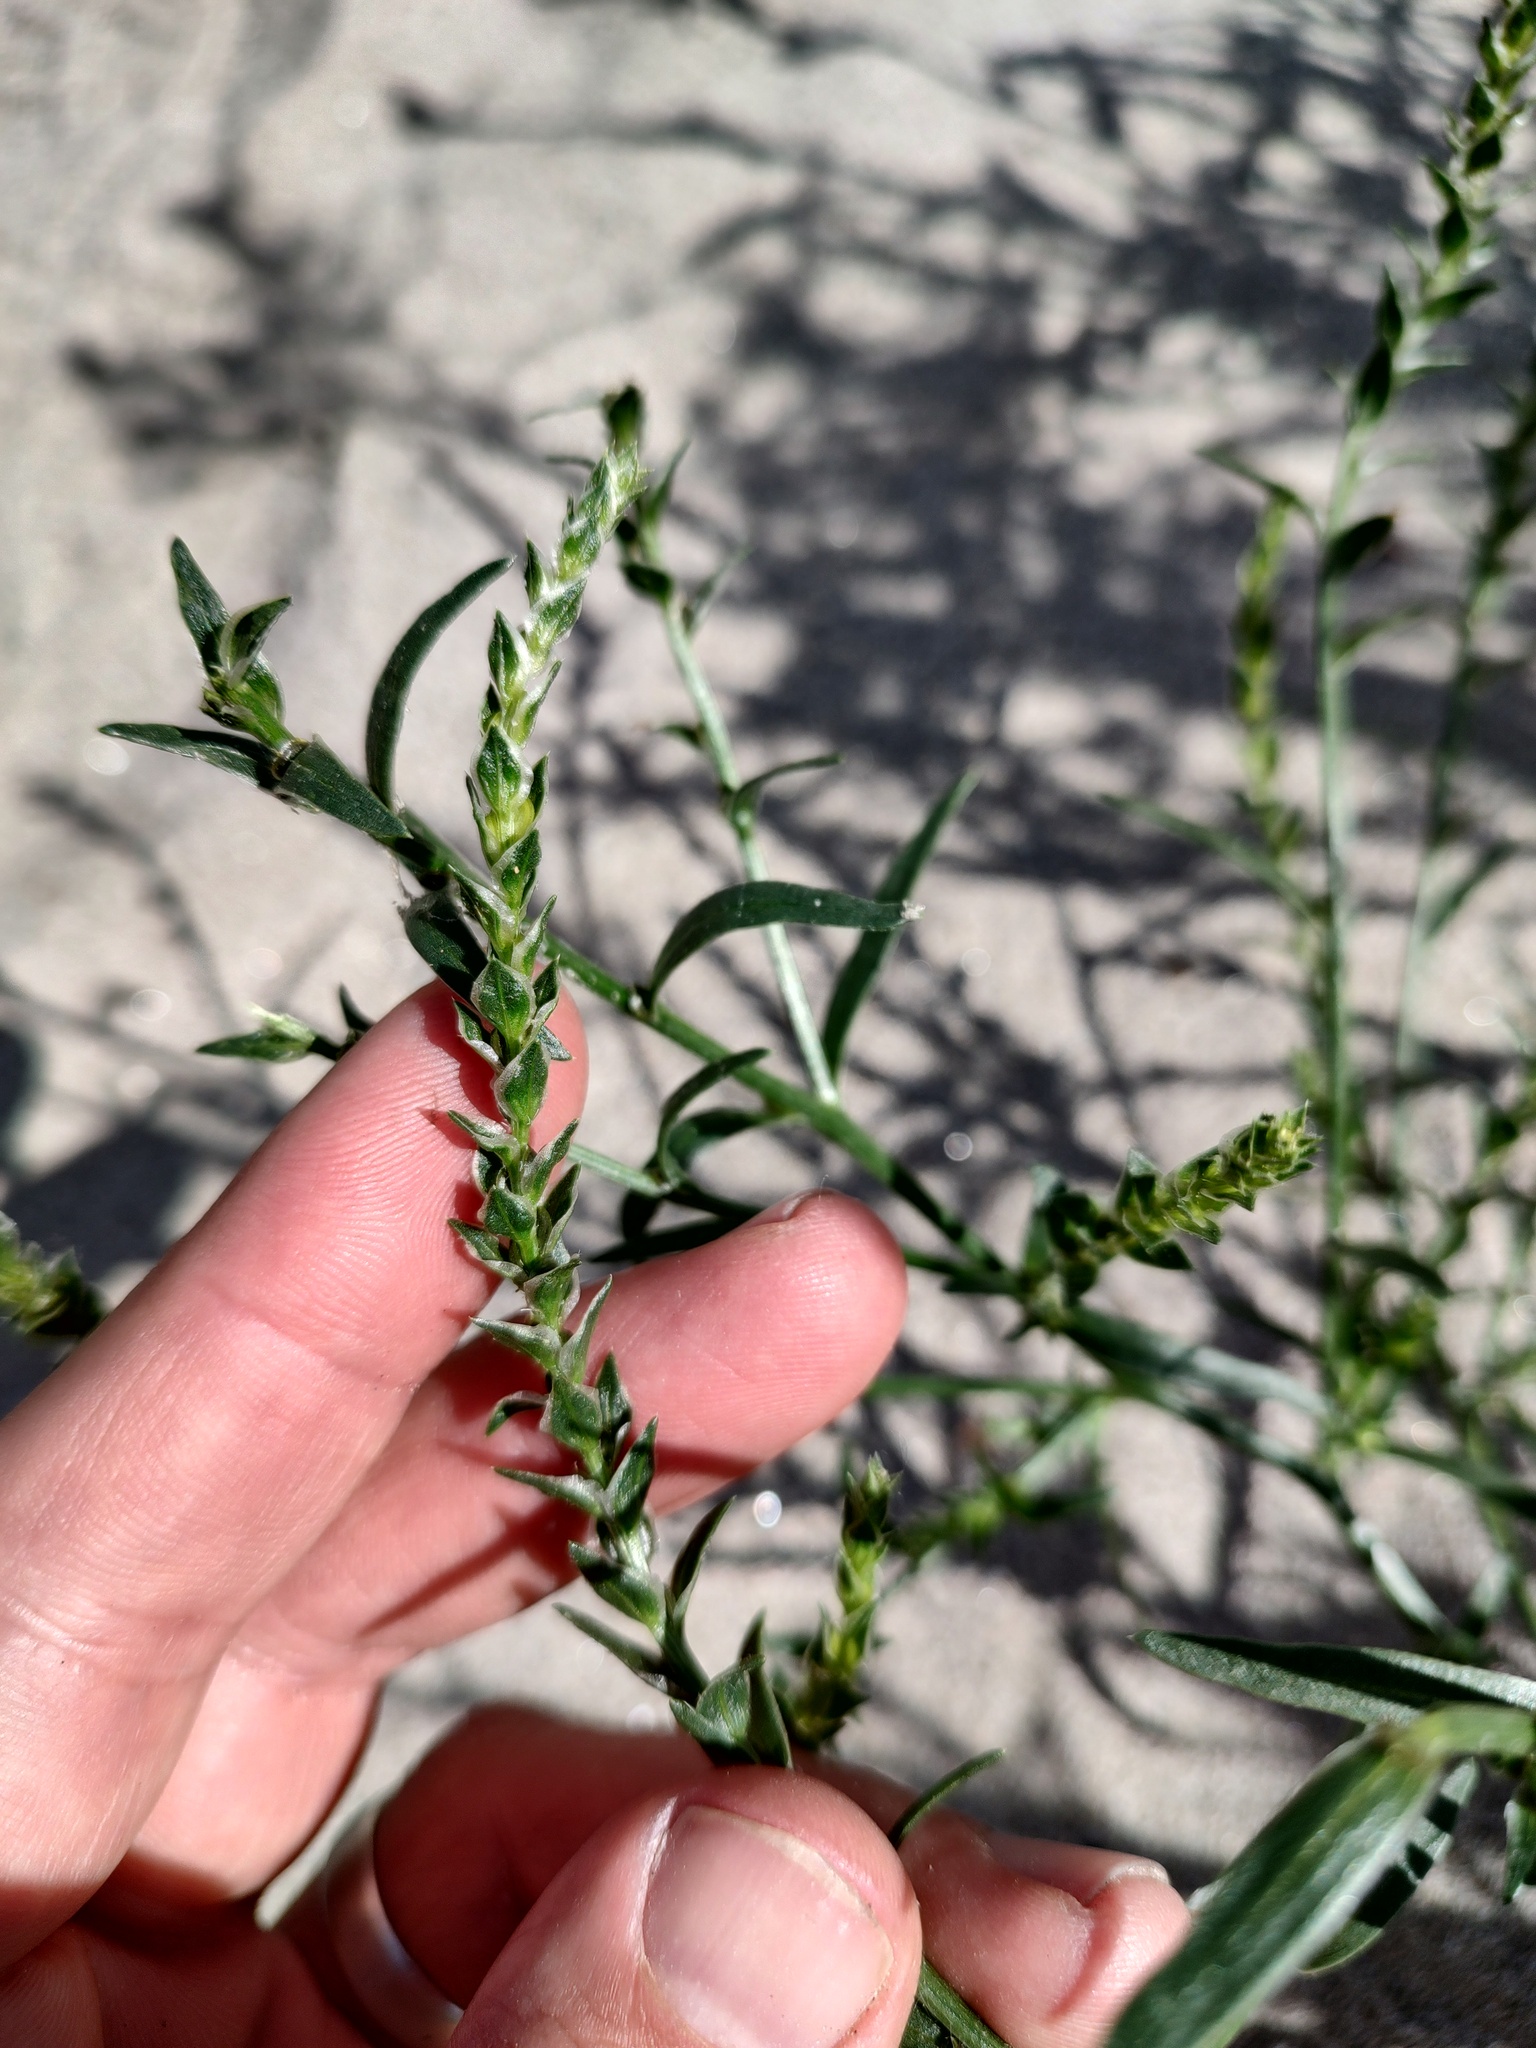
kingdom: Plantae
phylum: Tracheophyta
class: Magnoliopsida
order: Caryophyllales
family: Amaranthaceae
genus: Corispermum
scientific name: Corispermum pacificum
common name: Pacific bugseed
